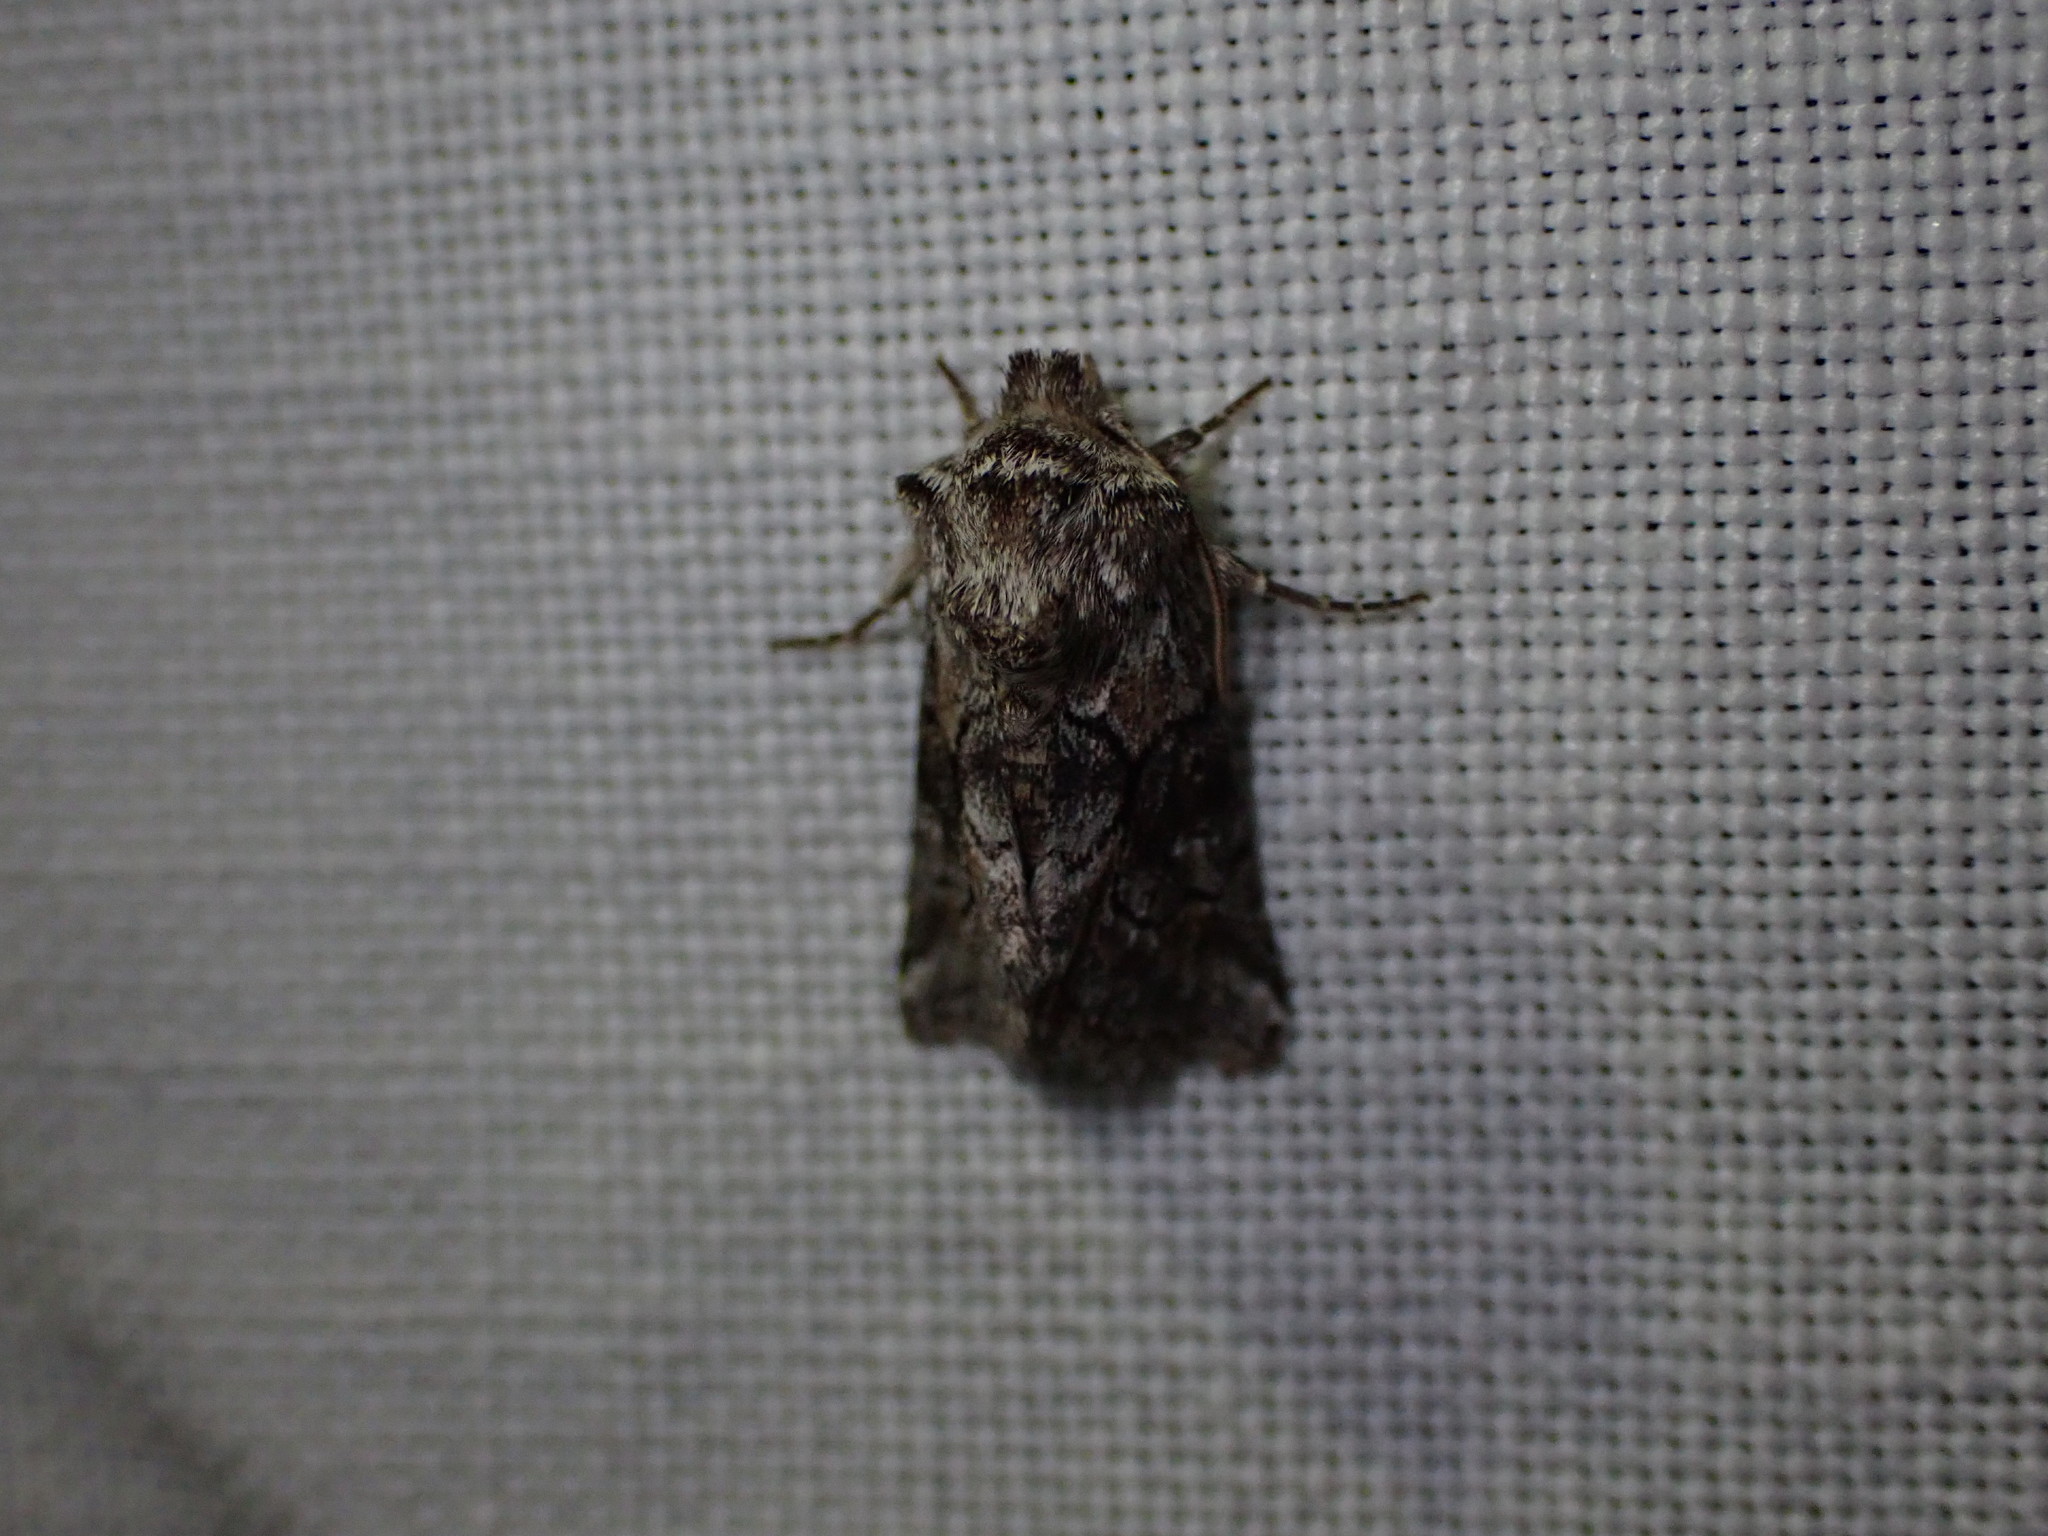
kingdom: Animalia
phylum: Arthropoda
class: Insecta
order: Lepidoptera
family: Noctuidae
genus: Cleonymia
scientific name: Cleonymia yvanii
